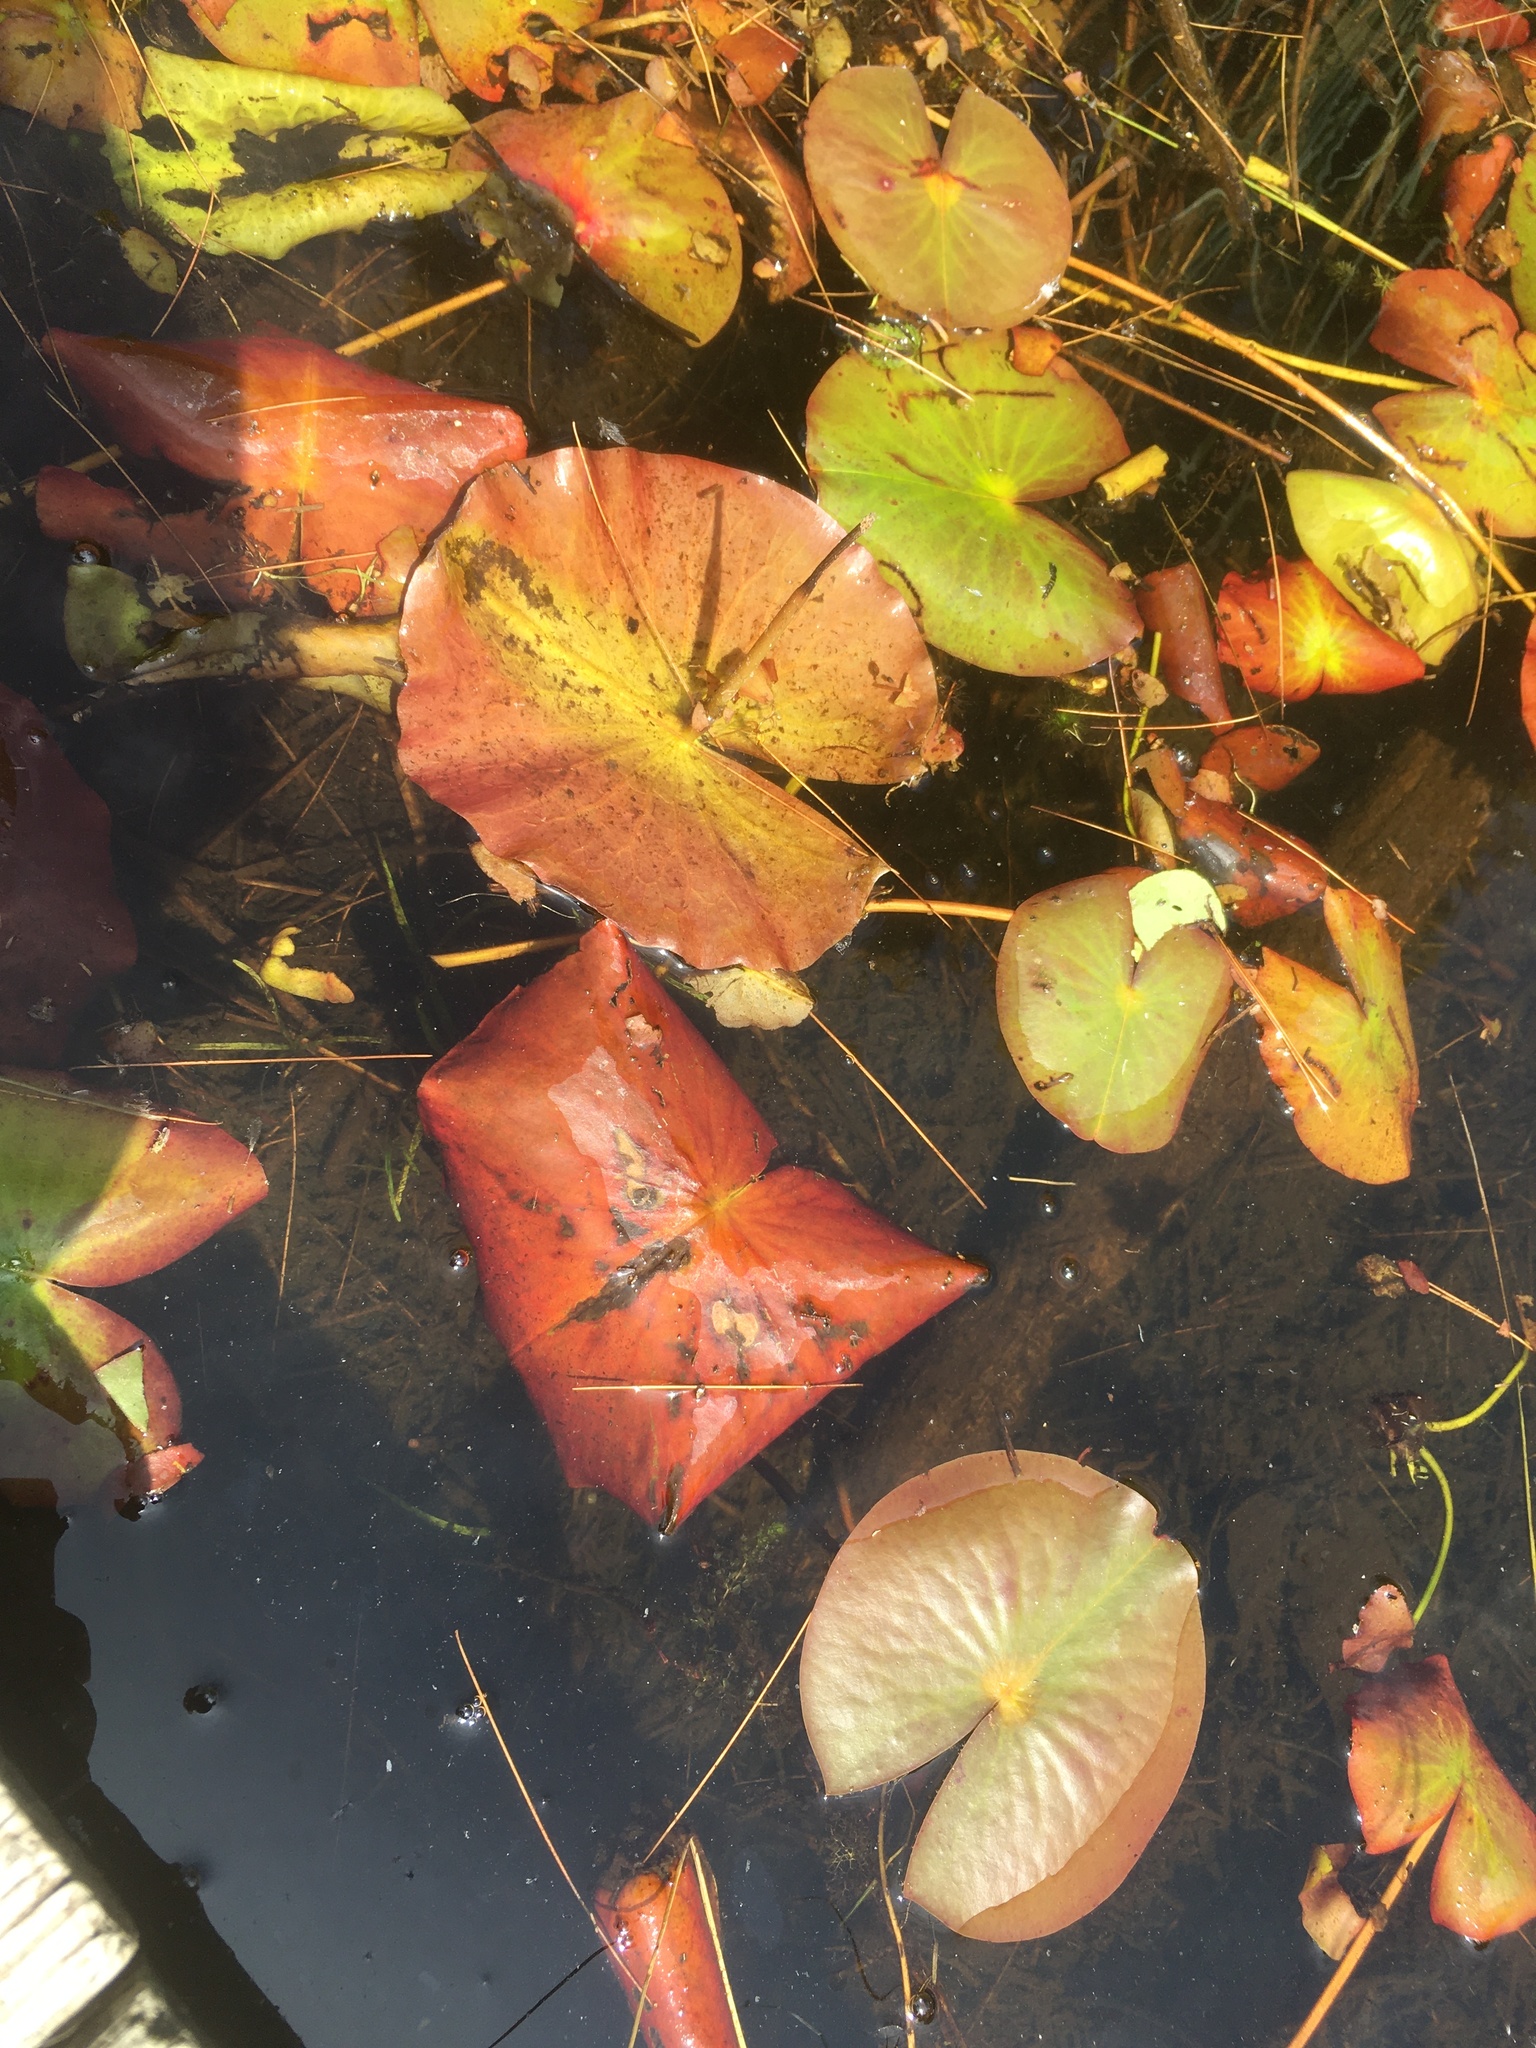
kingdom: Plantae
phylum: Tracheophyta
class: Magnoliopsida
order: Nymphaeales
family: Nymphaeaceae
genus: Nymphaea
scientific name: Nymphaea odorata
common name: Fragrant water-lily
